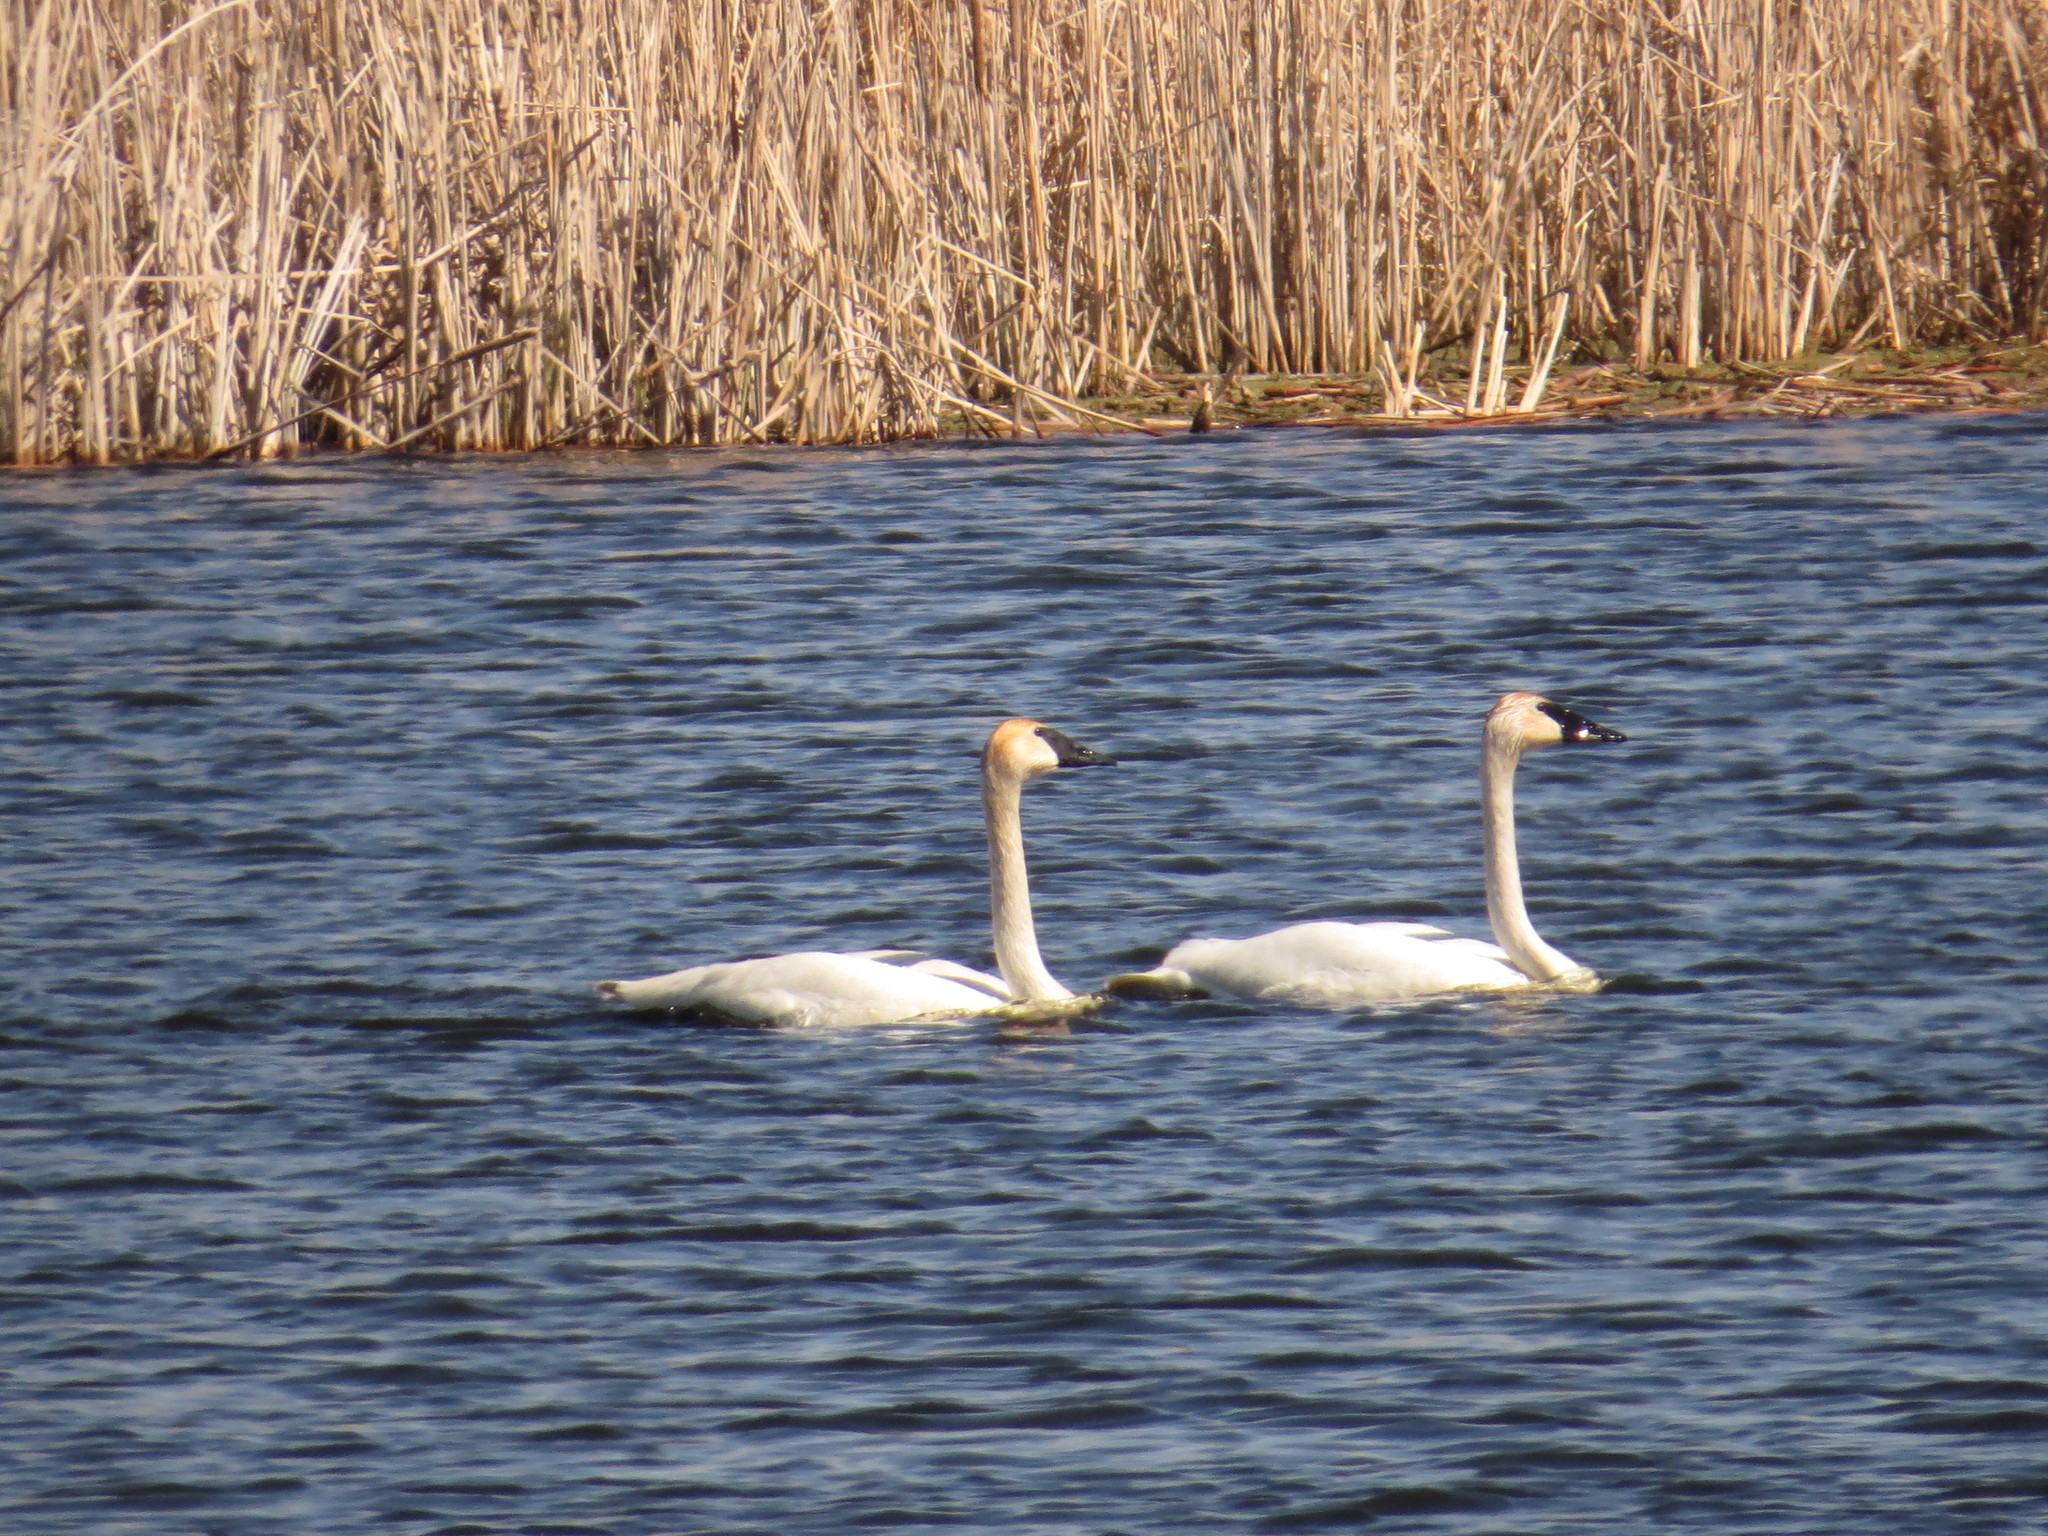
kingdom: Animalia
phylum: Chordata
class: Aves
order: Anseriformes
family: Anatidae
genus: Cygnus
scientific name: Cygnus buccinator
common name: Trumpeter swan
